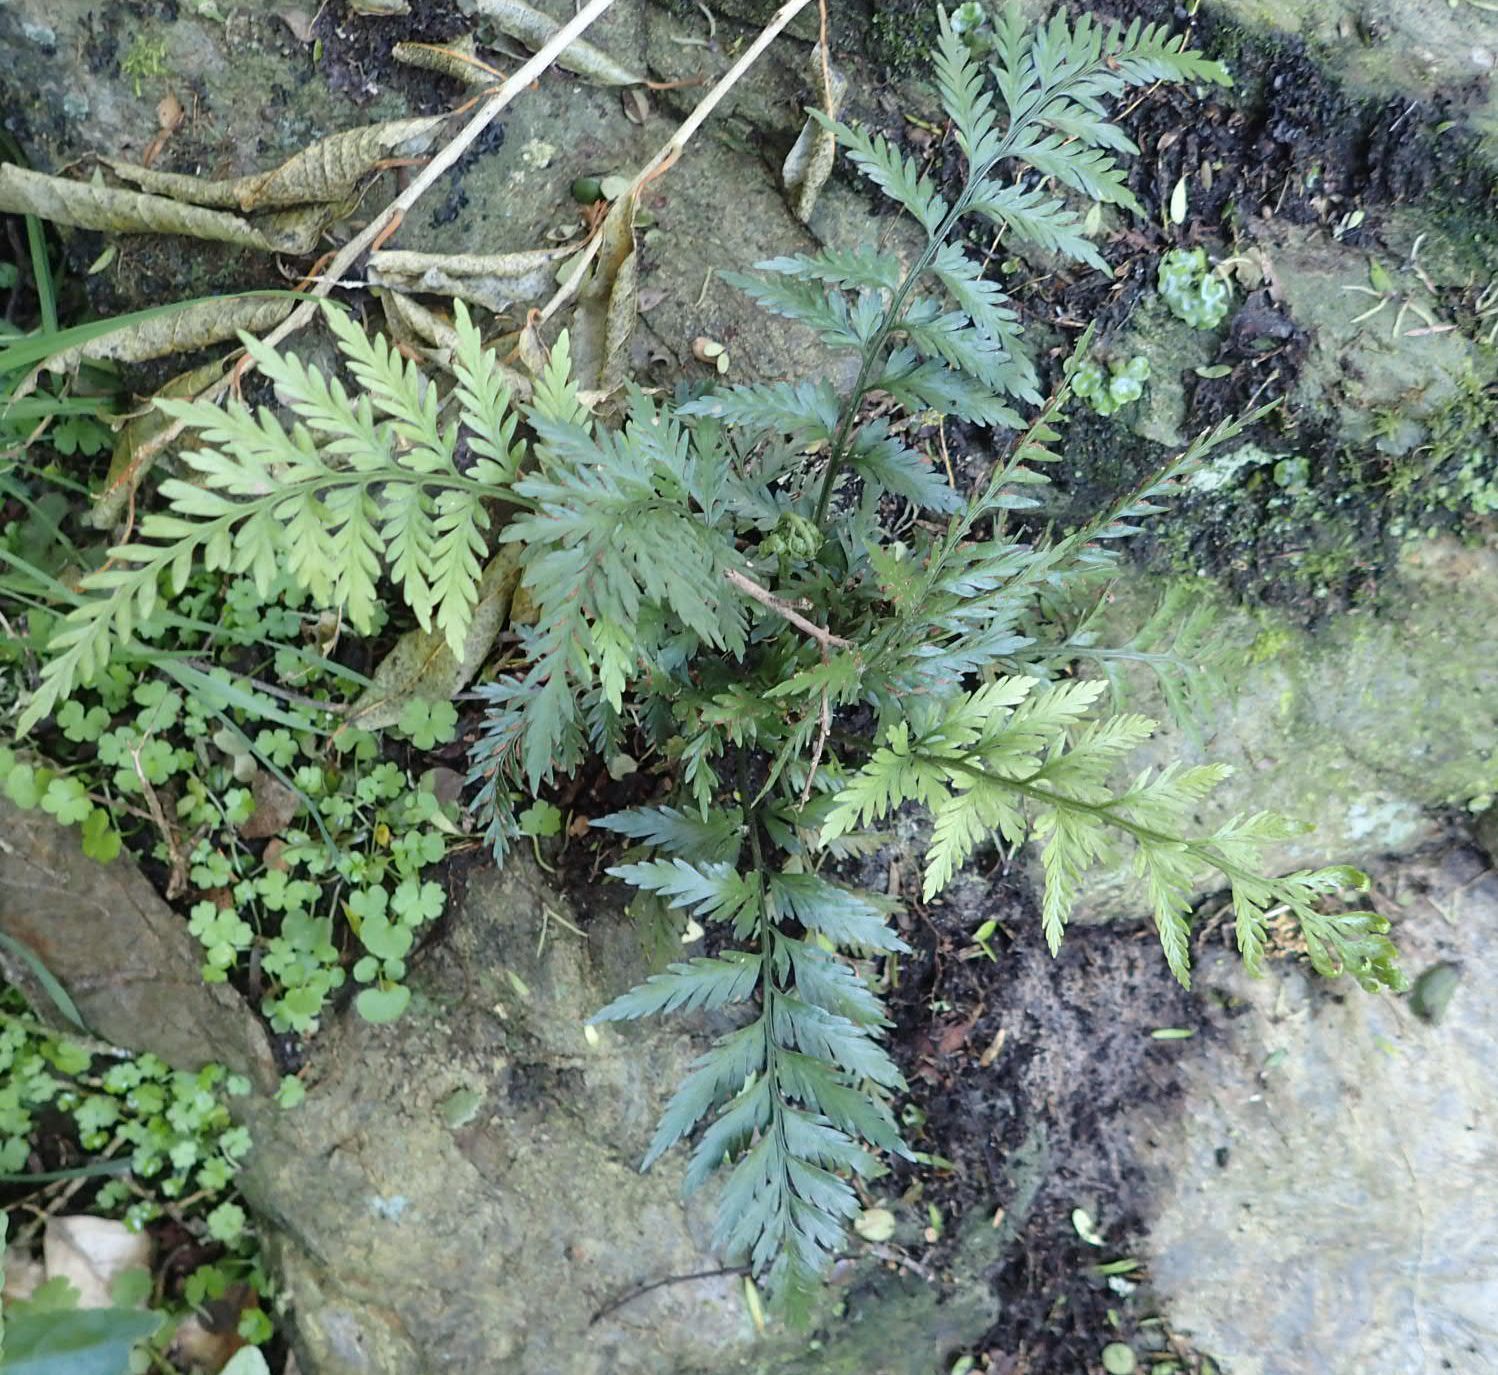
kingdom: Plantae
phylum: Tracheophyta
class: Polypodiopsida
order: Polypodiales
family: Aspleniaceae
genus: Asplenium
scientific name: Asplenium appendiculatum
